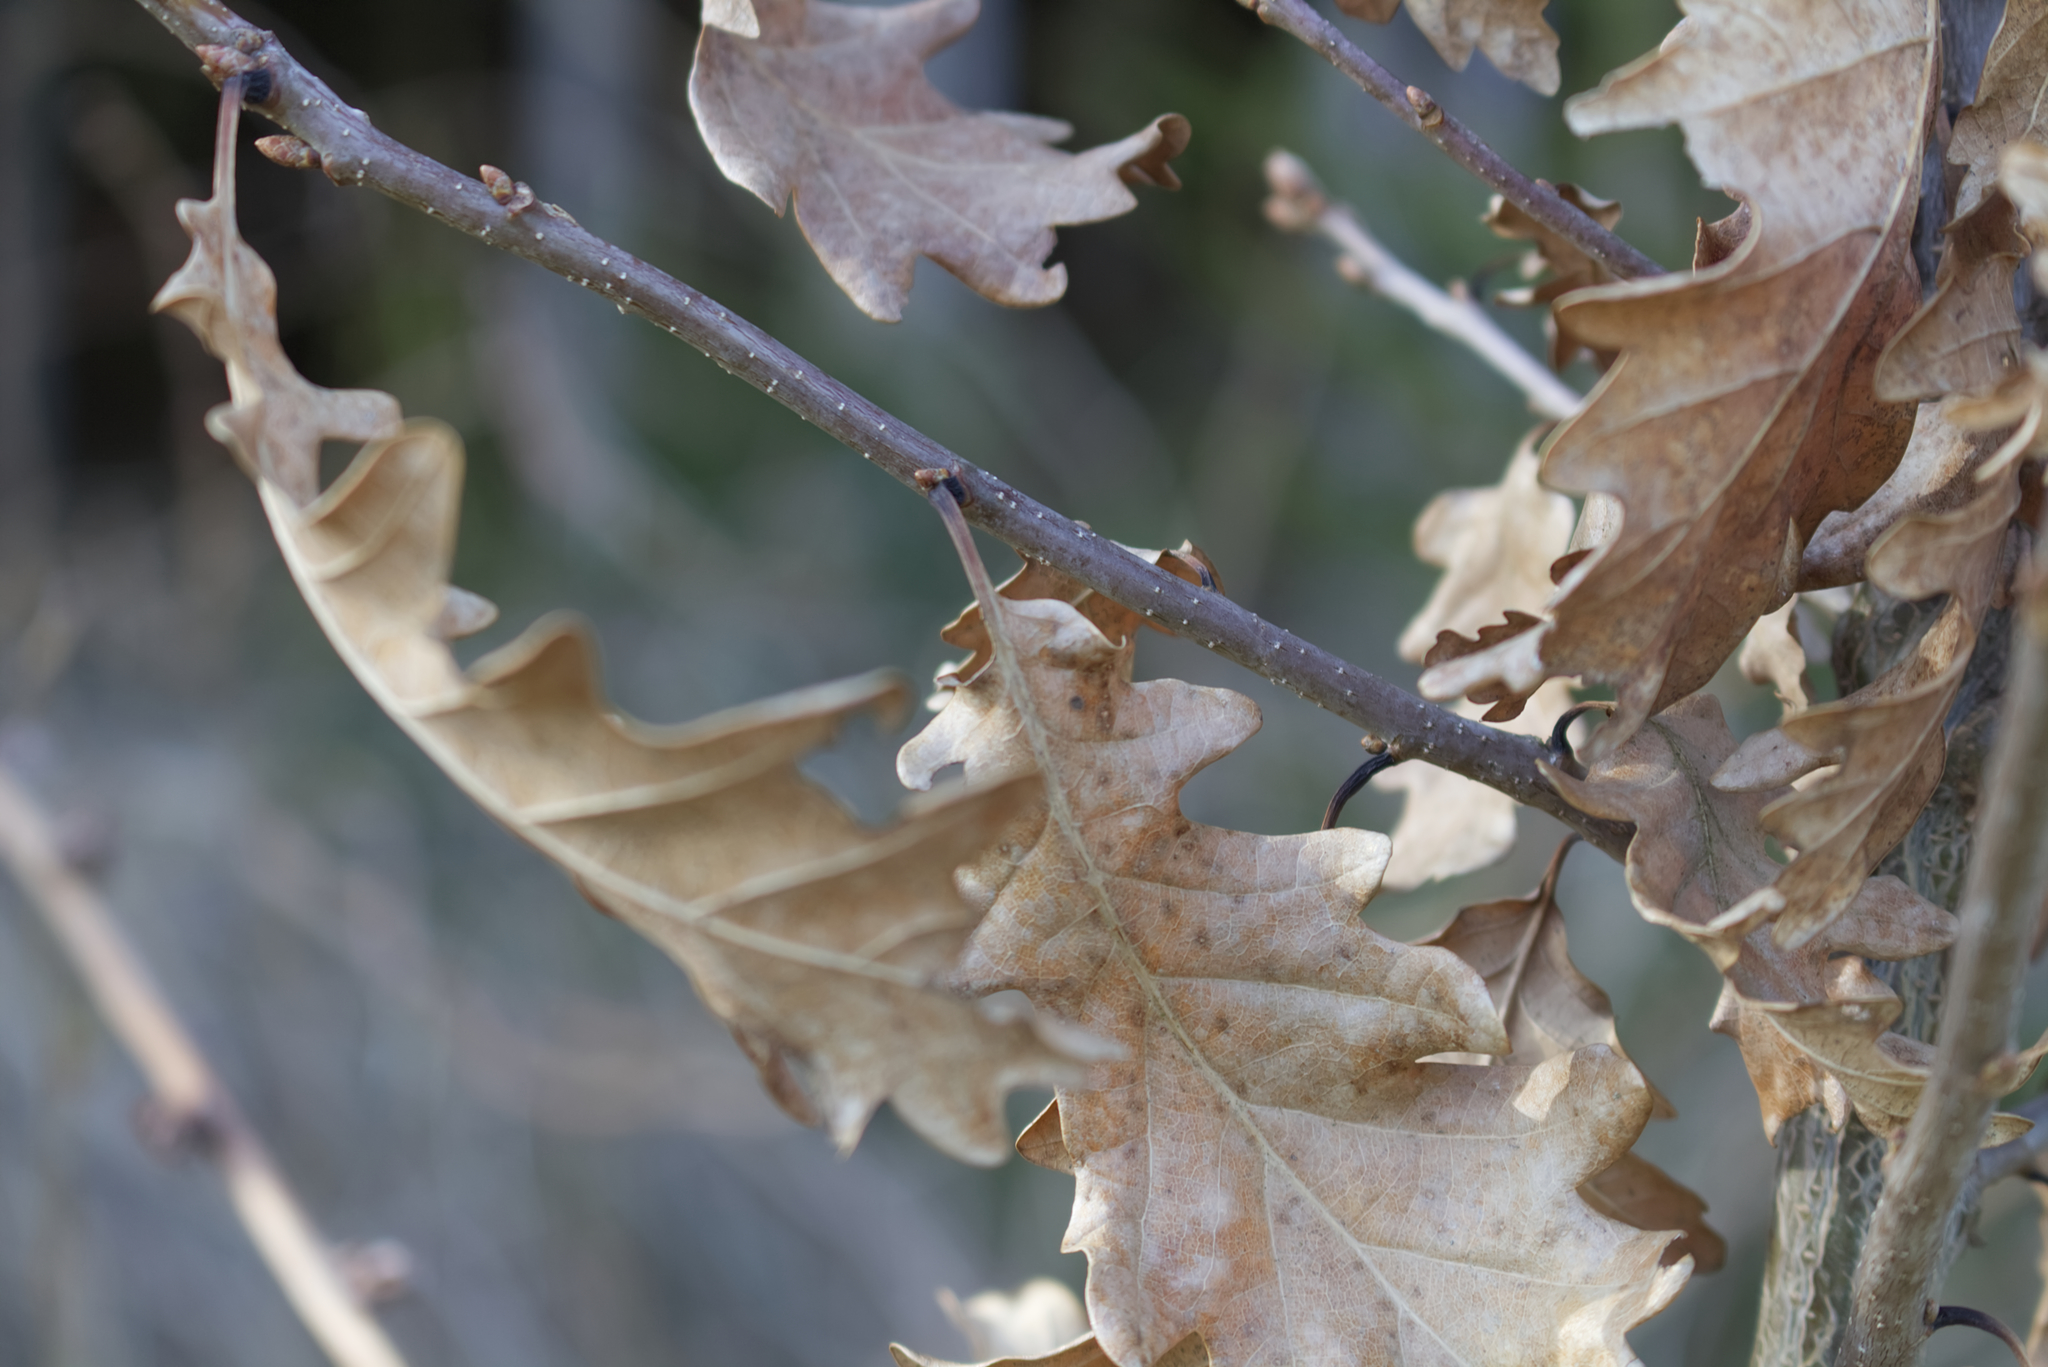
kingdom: Plantae
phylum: Tracheophyta
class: Magnoliopsida
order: Fagales
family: Fagaceae
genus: Quercus
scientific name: Quercus petraea
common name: Sessile oak
